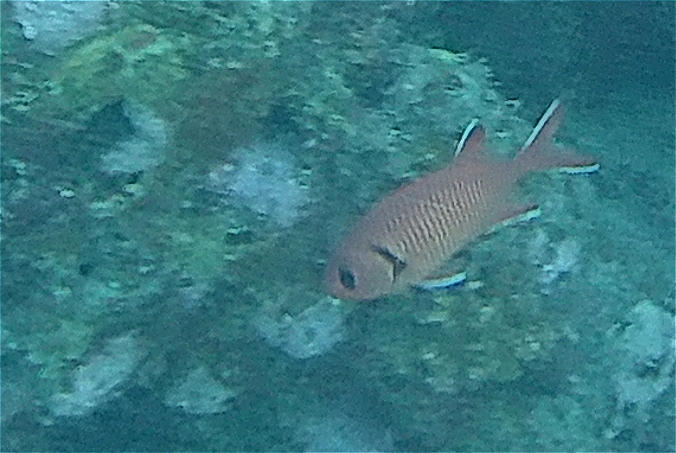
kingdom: Animalia
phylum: Chordata
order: Beryciformes
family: Holocentridae
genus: Myripristis
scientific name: Myripristis murdjan
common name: Big-eye soldierfish
